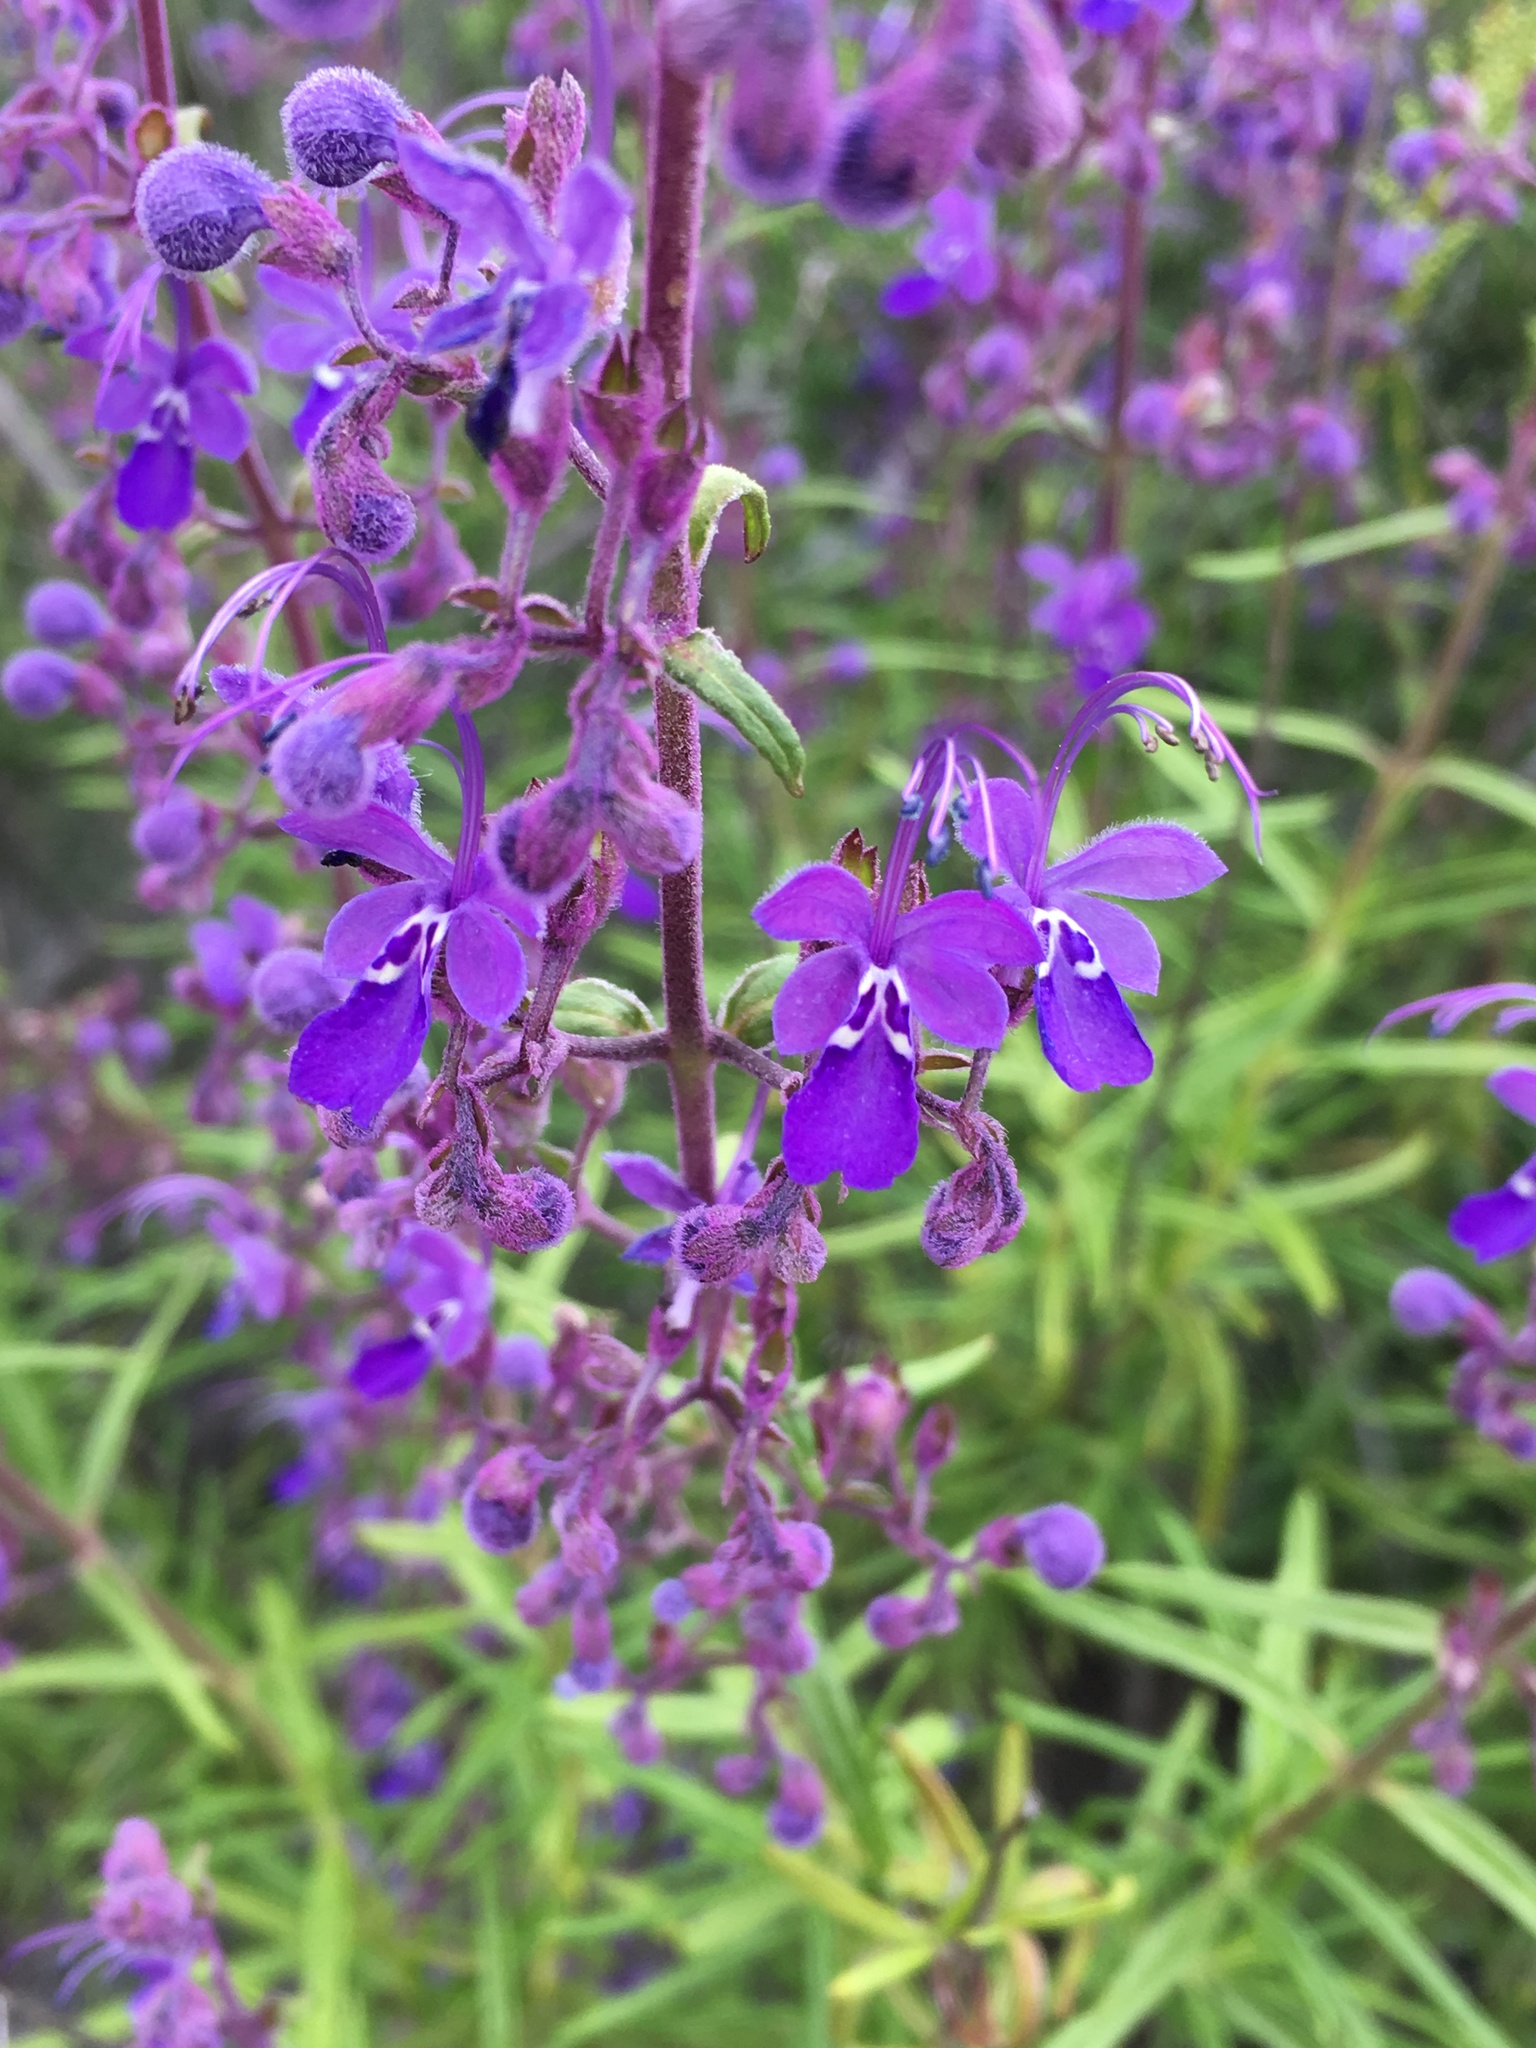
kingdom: Plantae
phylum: Tracheophyta
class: Magnoliopsida
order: Lamiales
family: Lamiaceae
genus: Trichostema
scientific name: Trichostema parishii
